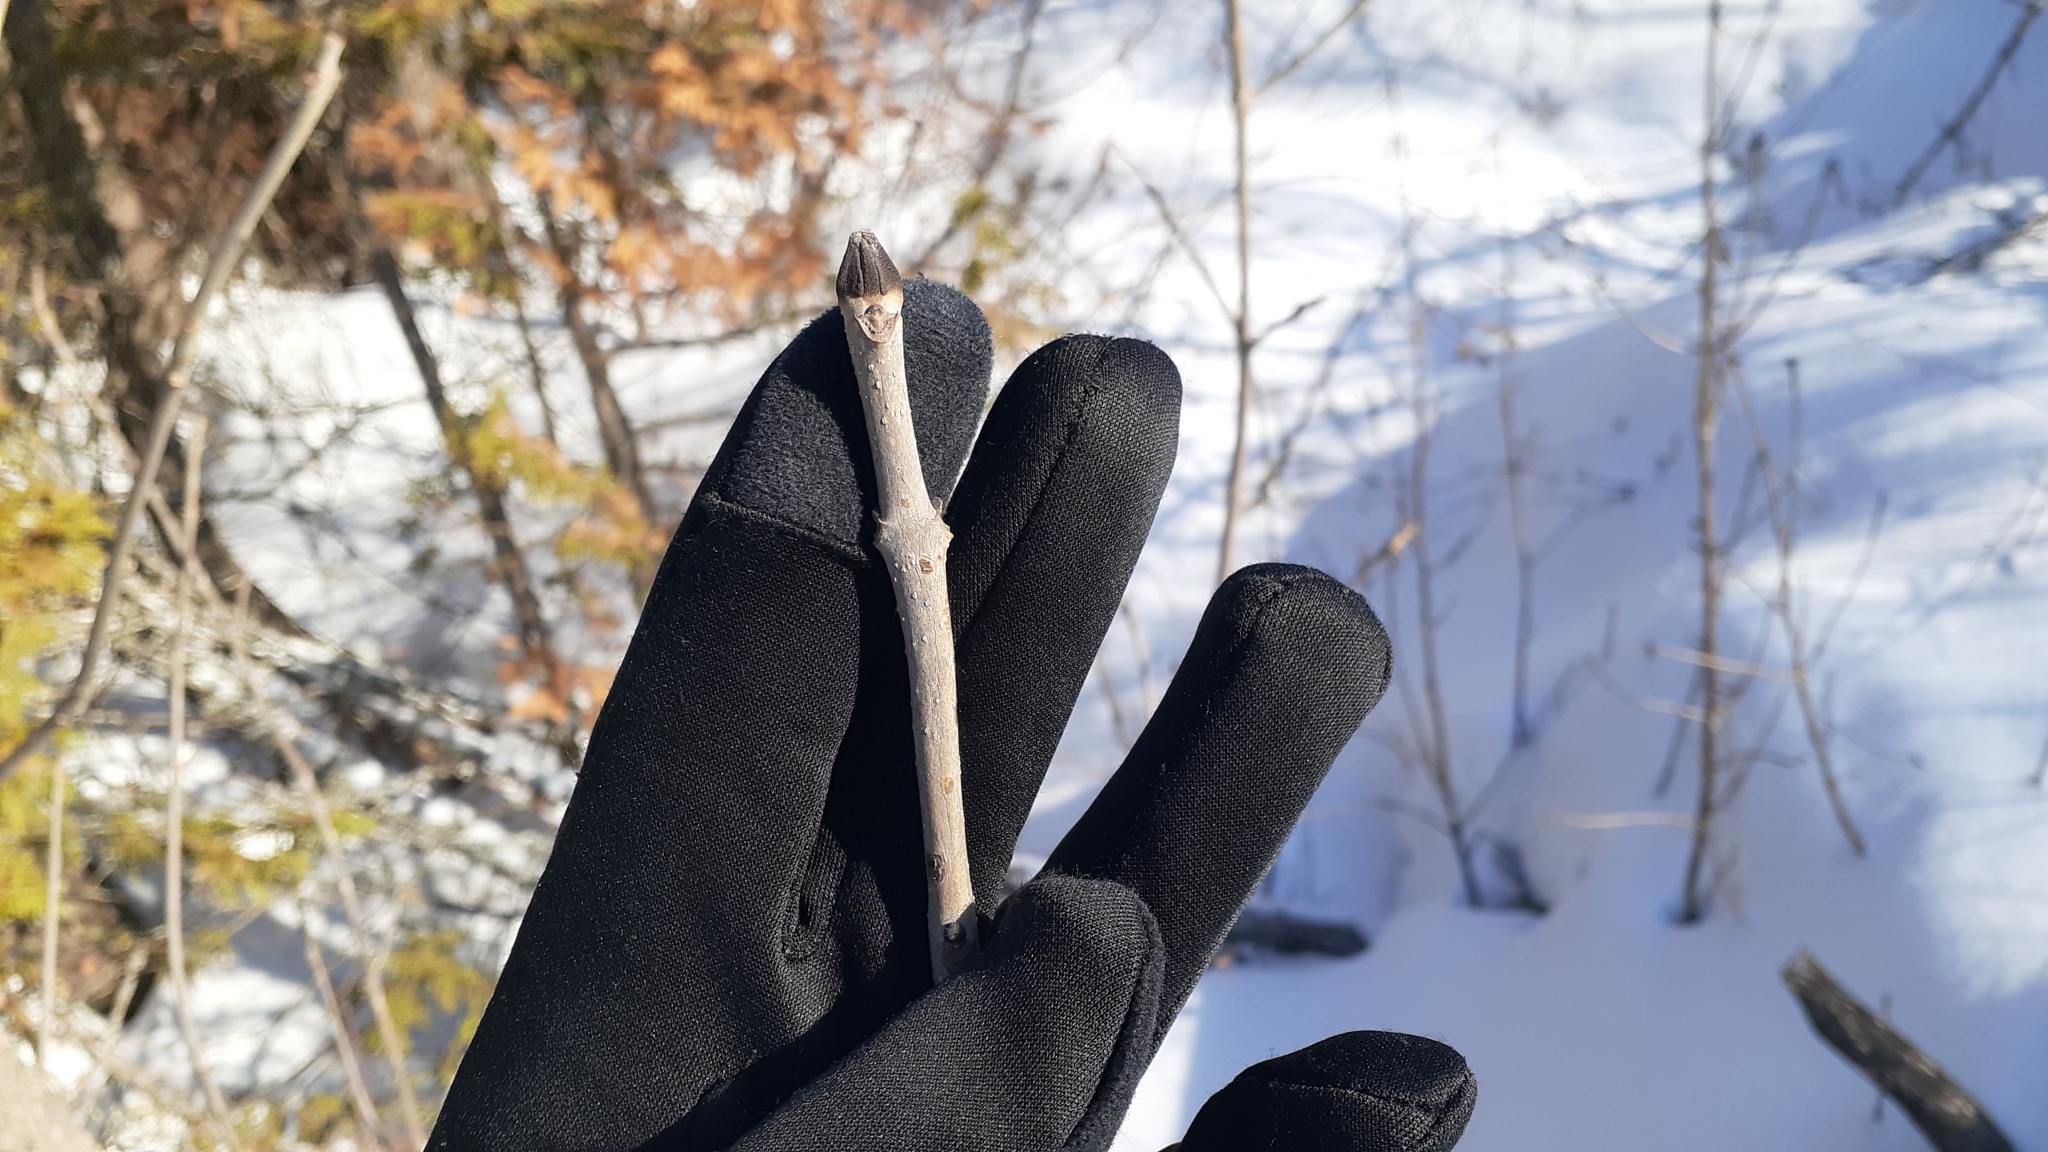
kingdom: Plantae
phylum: Tracheophyta
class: Magnoliopsida
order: Lamiales
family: Oleaceae
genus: Fraxinus
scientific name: Fraxinus nigra
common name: Black ash
